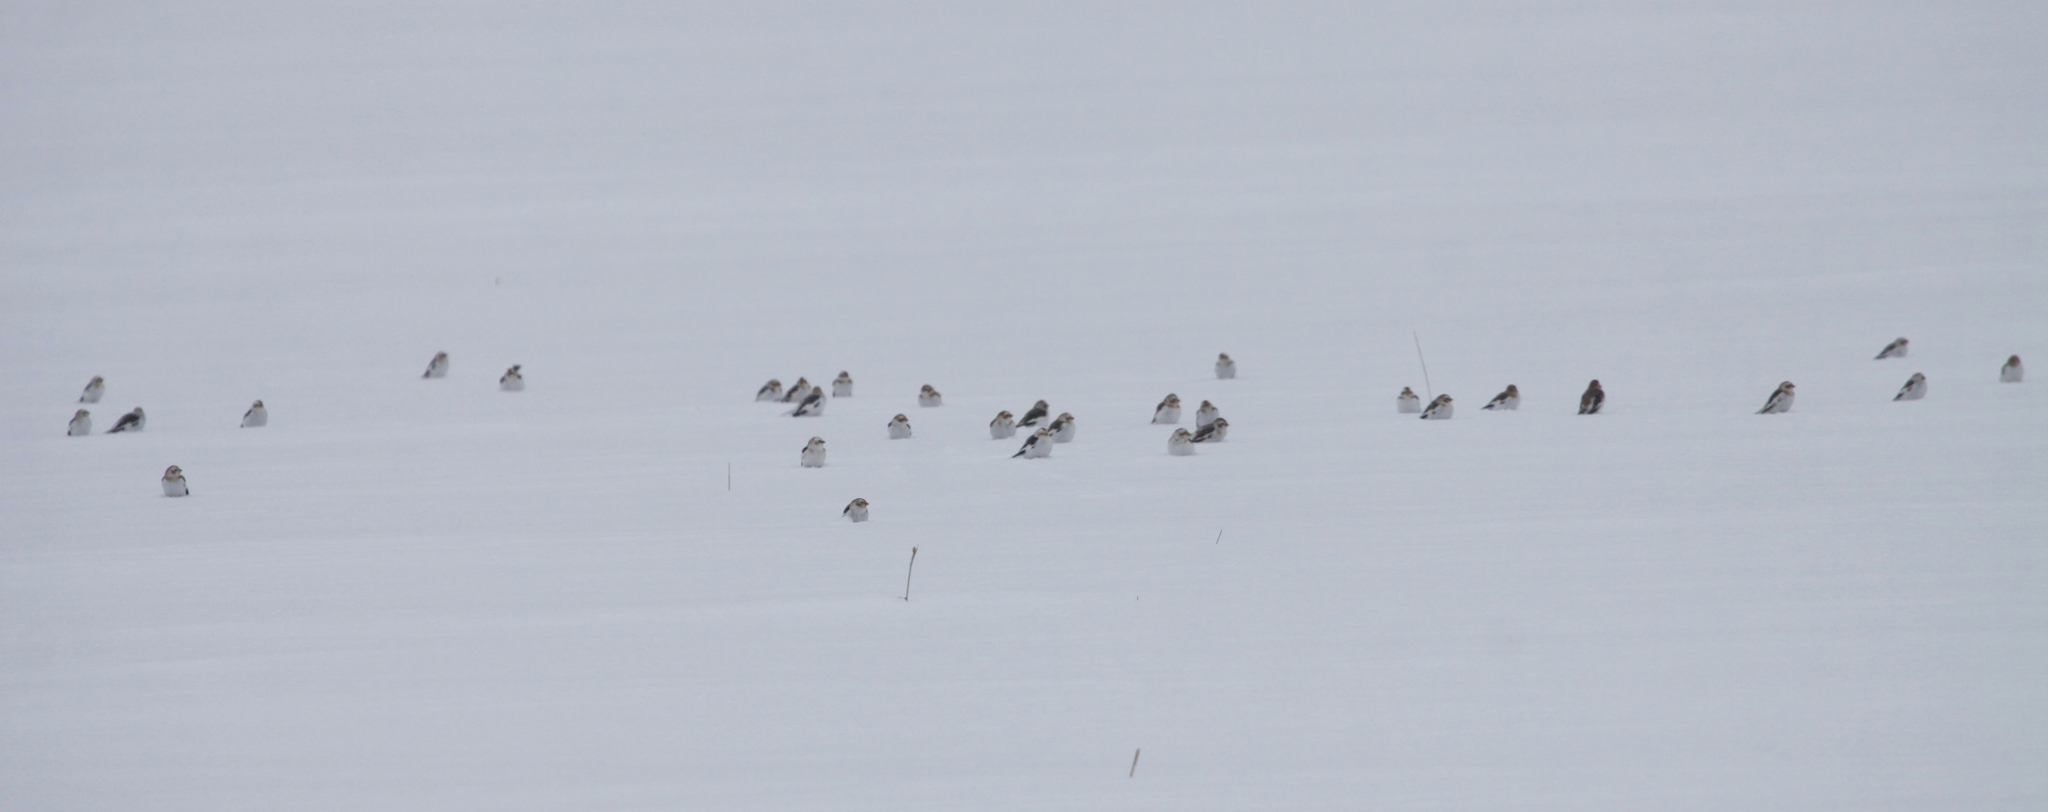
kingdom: Animalia
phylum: Chordata
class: Aves
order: Passeriformes
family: Calcariidae
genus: Plectrophenax
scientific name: Plectrophenax nivalis
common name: Snow bunting
